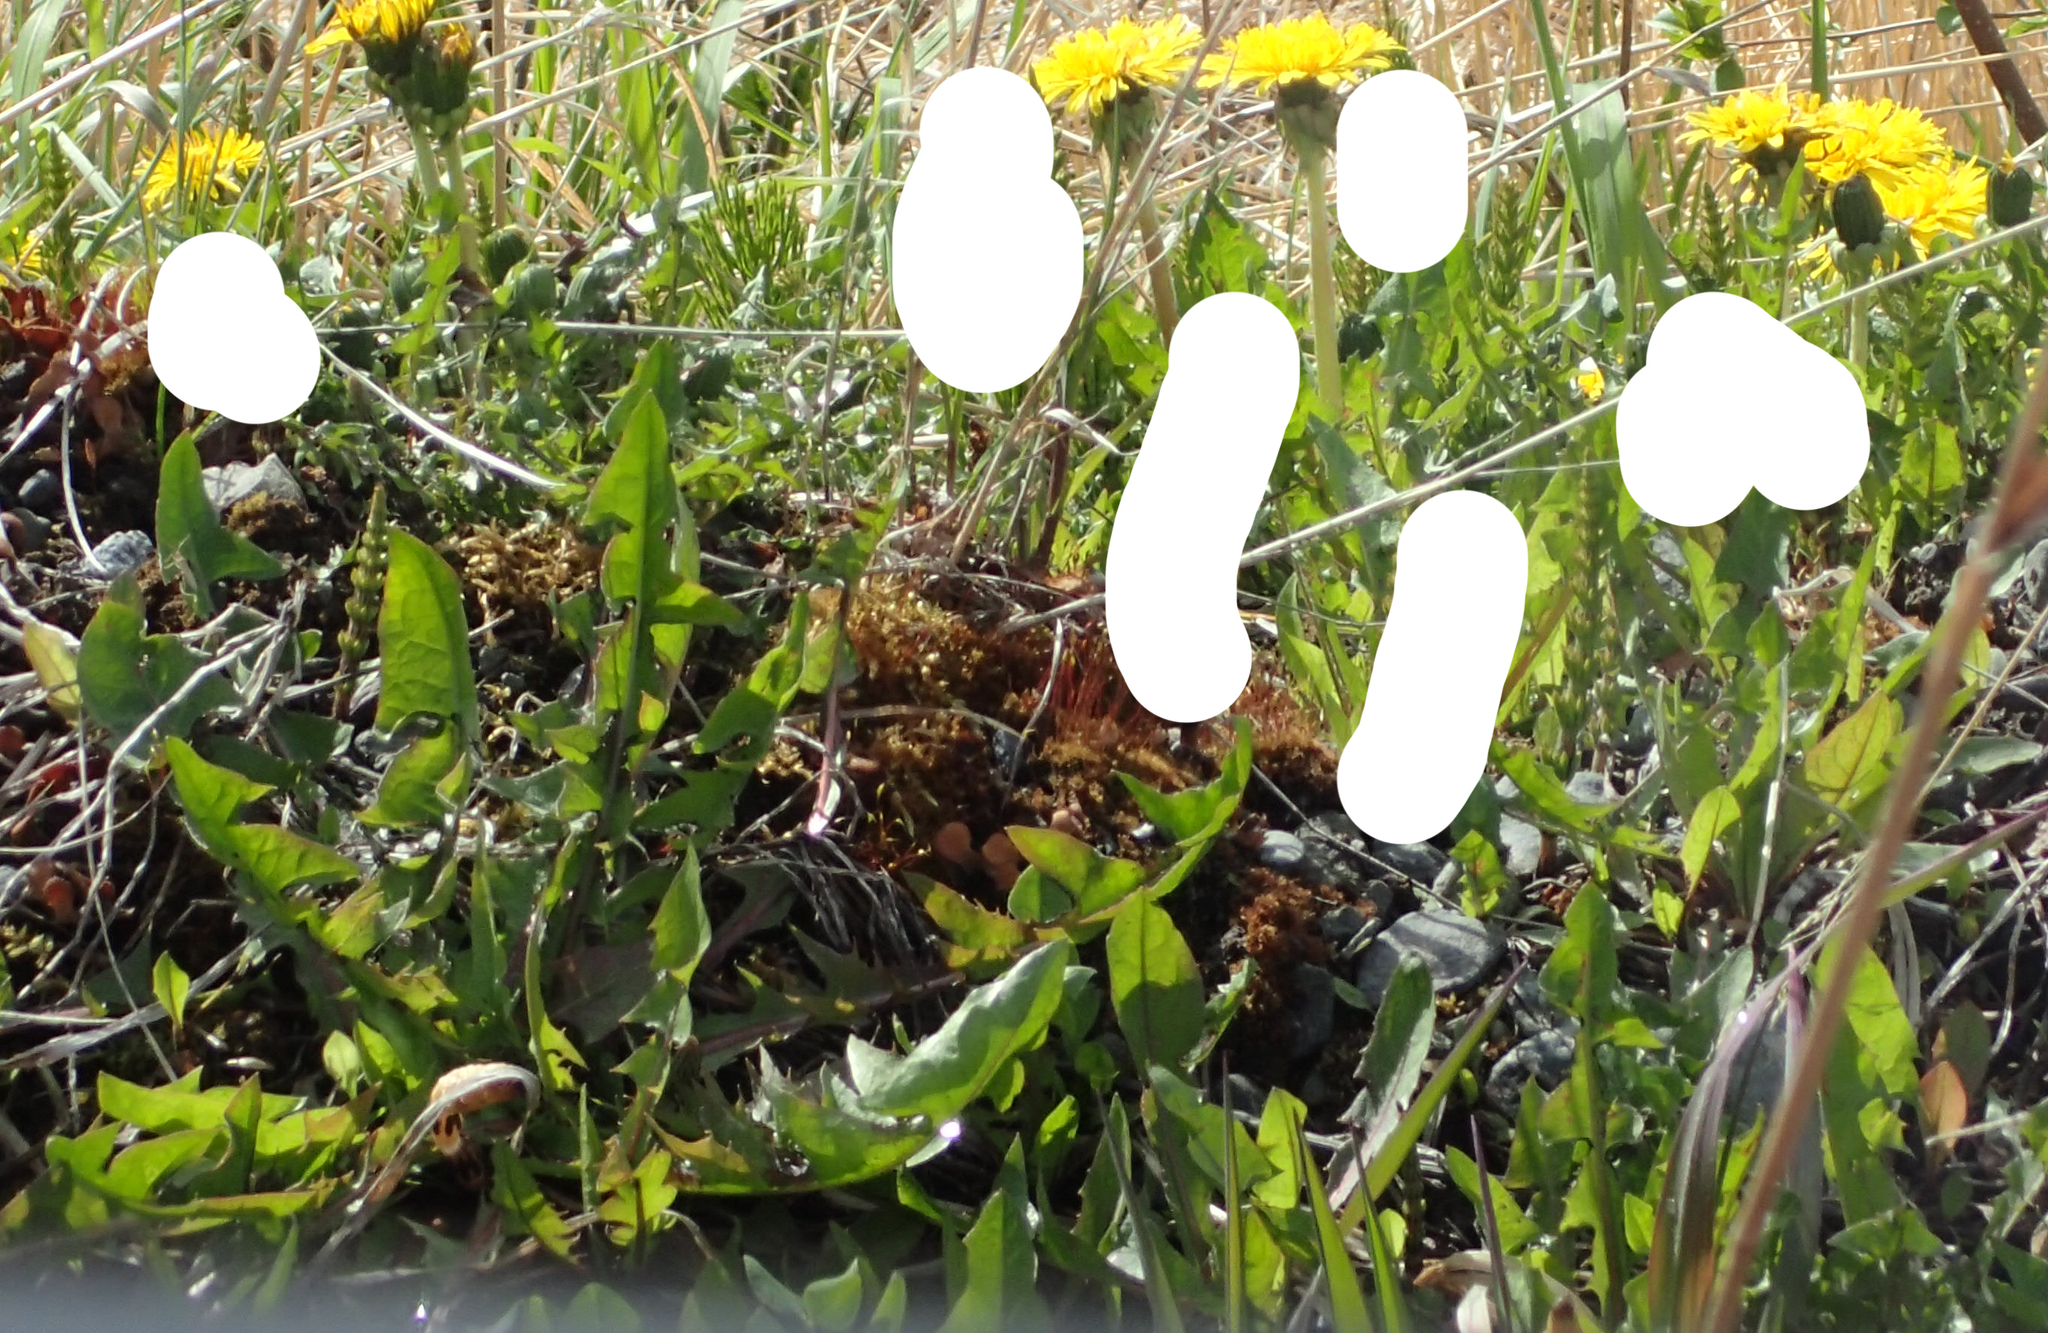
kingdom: Plantae
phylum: Tracheophyta
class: Magnoliopsida
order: Asterales
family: Asteraceae
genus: Taraxacum
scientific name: Taraxacum officinale
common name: Common dandelion
